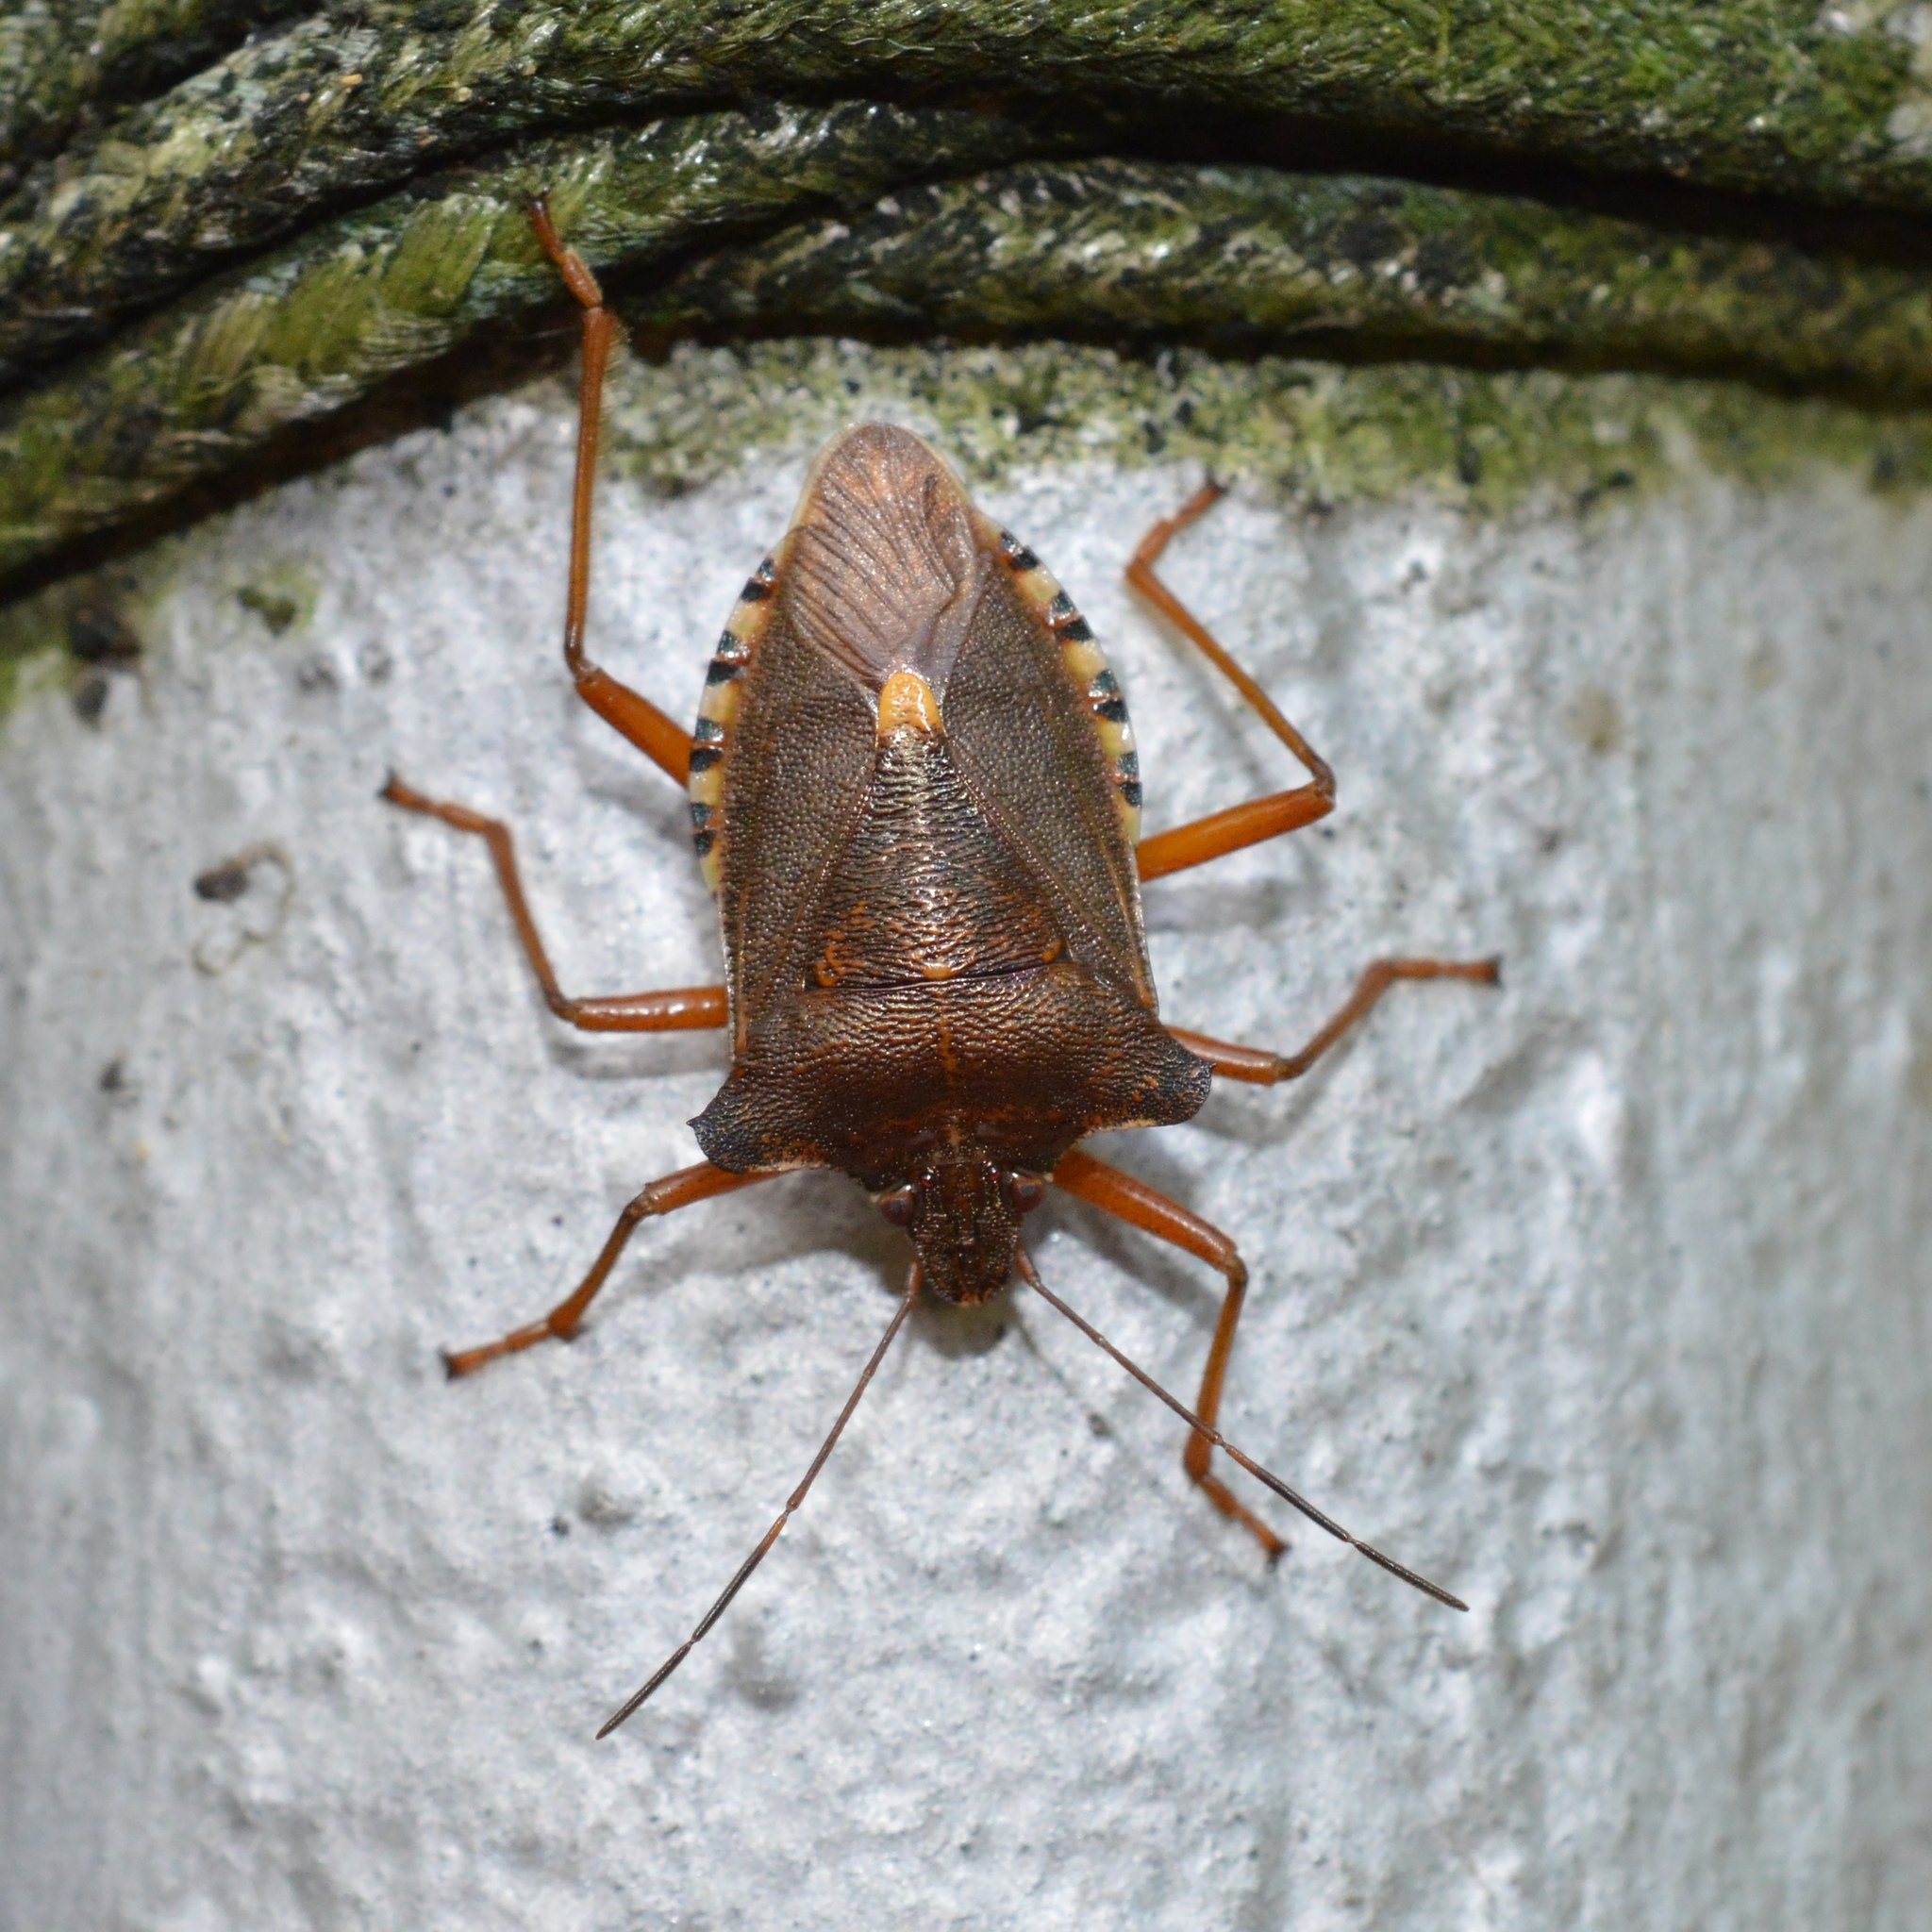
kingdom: Animalia
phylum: Arthropoda
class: Insecta
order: Hemiptera
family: Pentatomidae
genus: Pentatoma
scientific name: Pentatoma rufipes
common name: Forest bug
